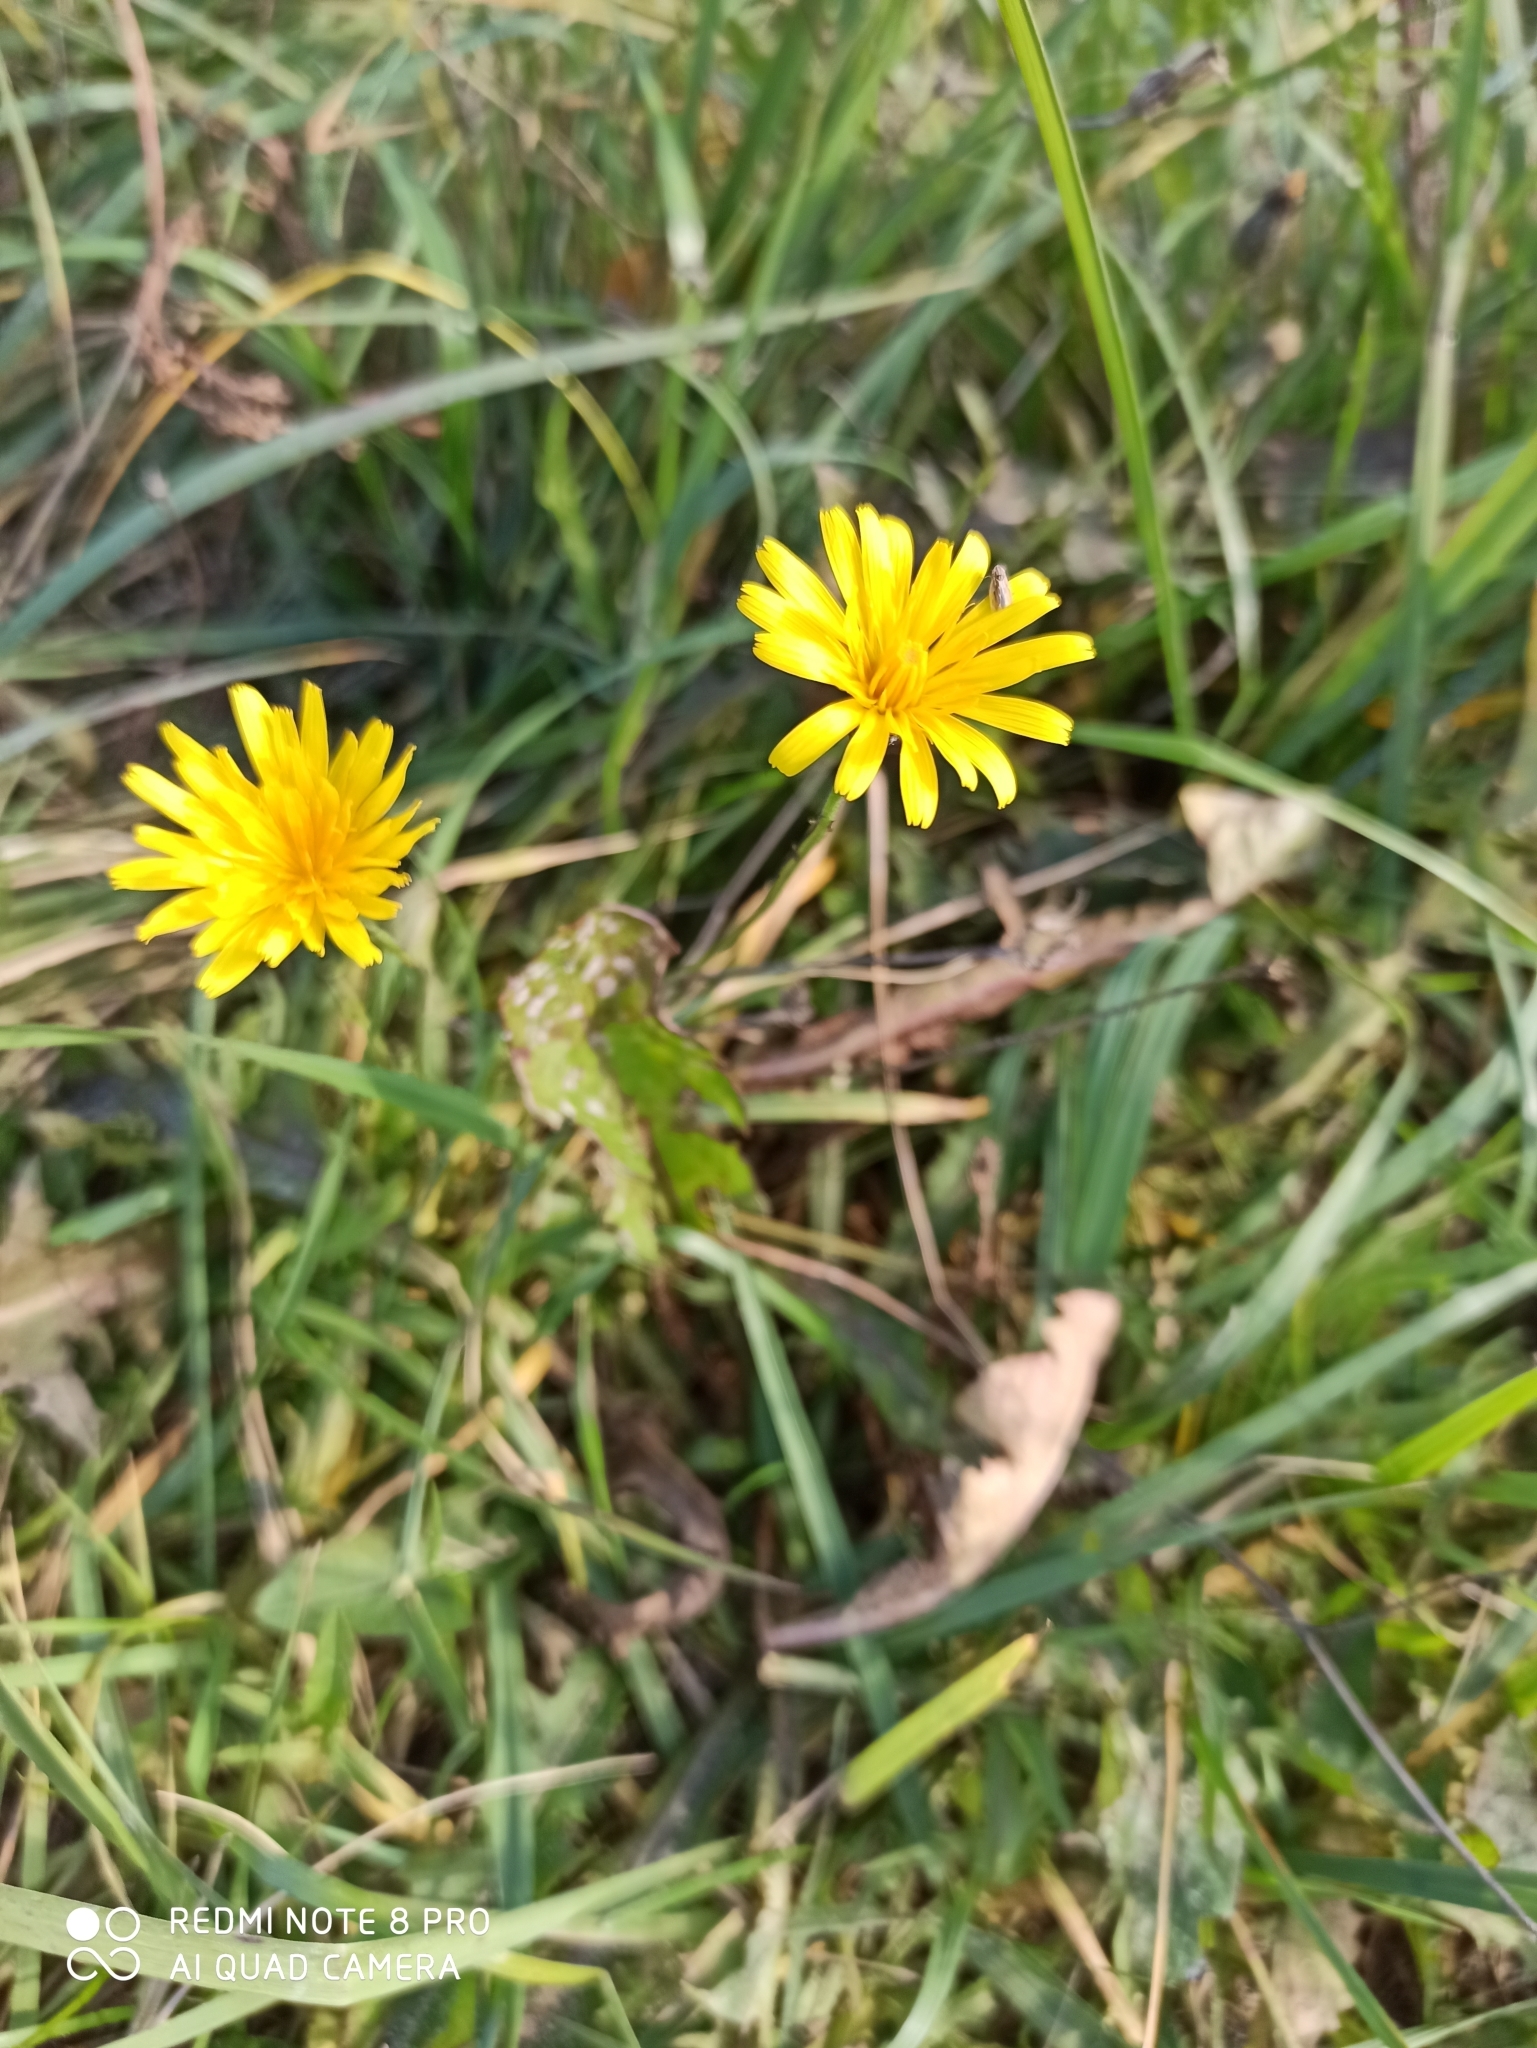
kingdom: Plantae
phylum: Tracheophyta
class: Magnoliopsida
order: Asterales
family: Asteraceae
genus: Scorzoneroides
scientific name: Scorzoneroides autumnalis
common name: Autumn hawkbit
